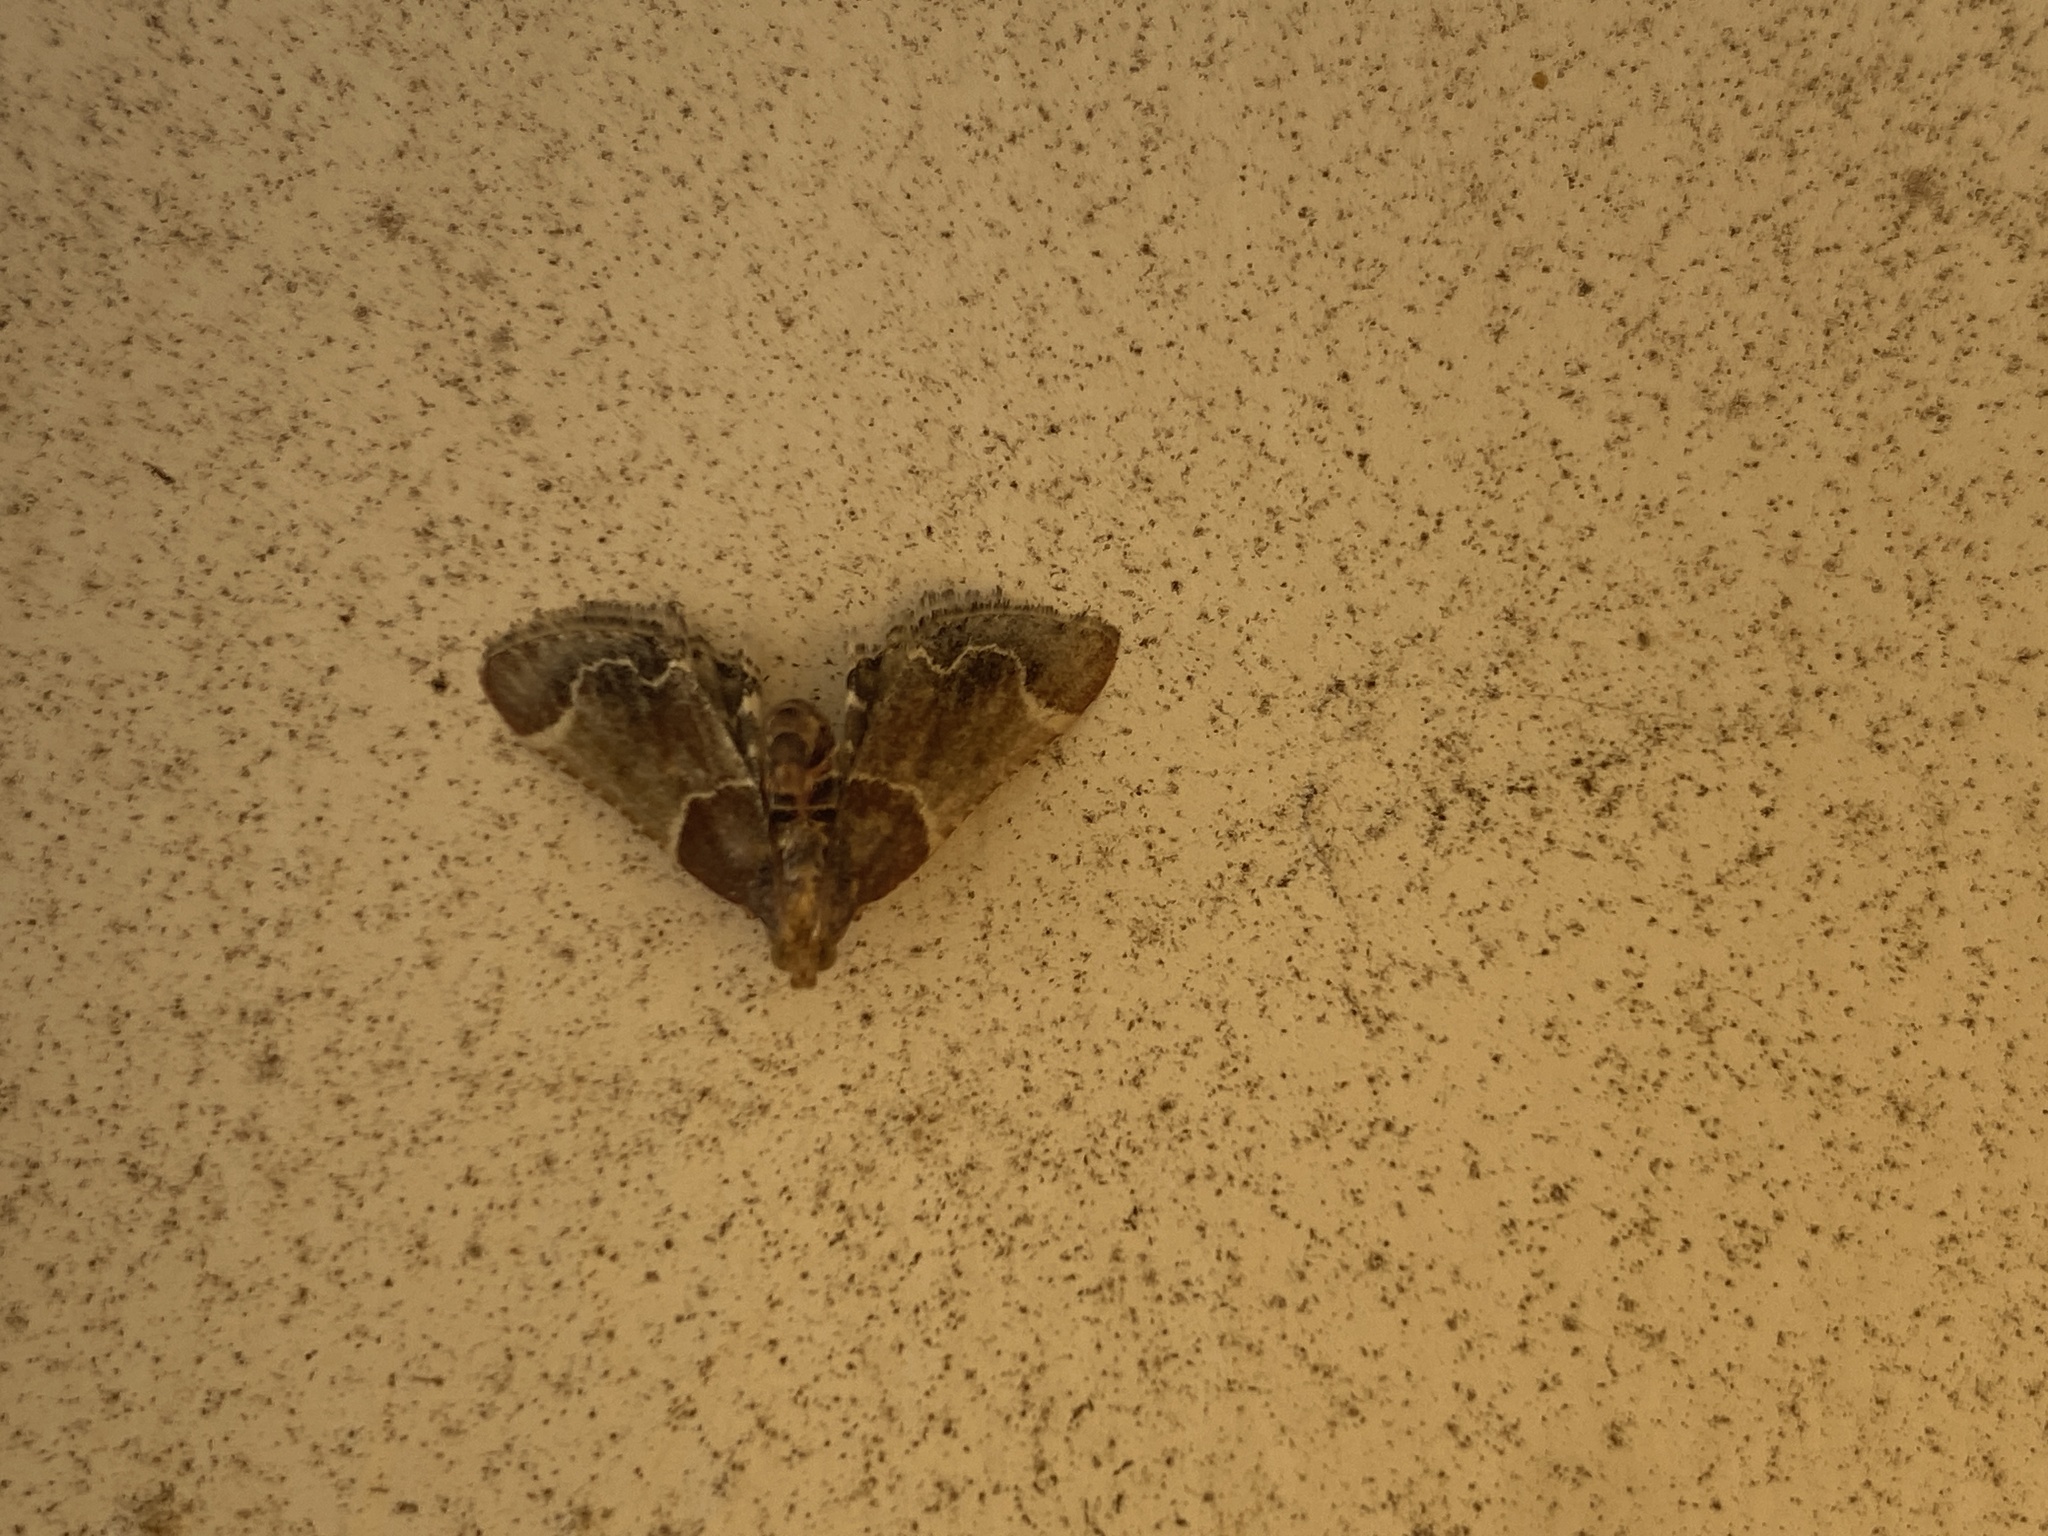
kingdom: Animalia
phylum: Arthropoda
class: Insecta
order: Lepidoptera
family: Pyralidae
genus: Pyralis
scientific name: Pyralis farinalis
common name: Meal moth
